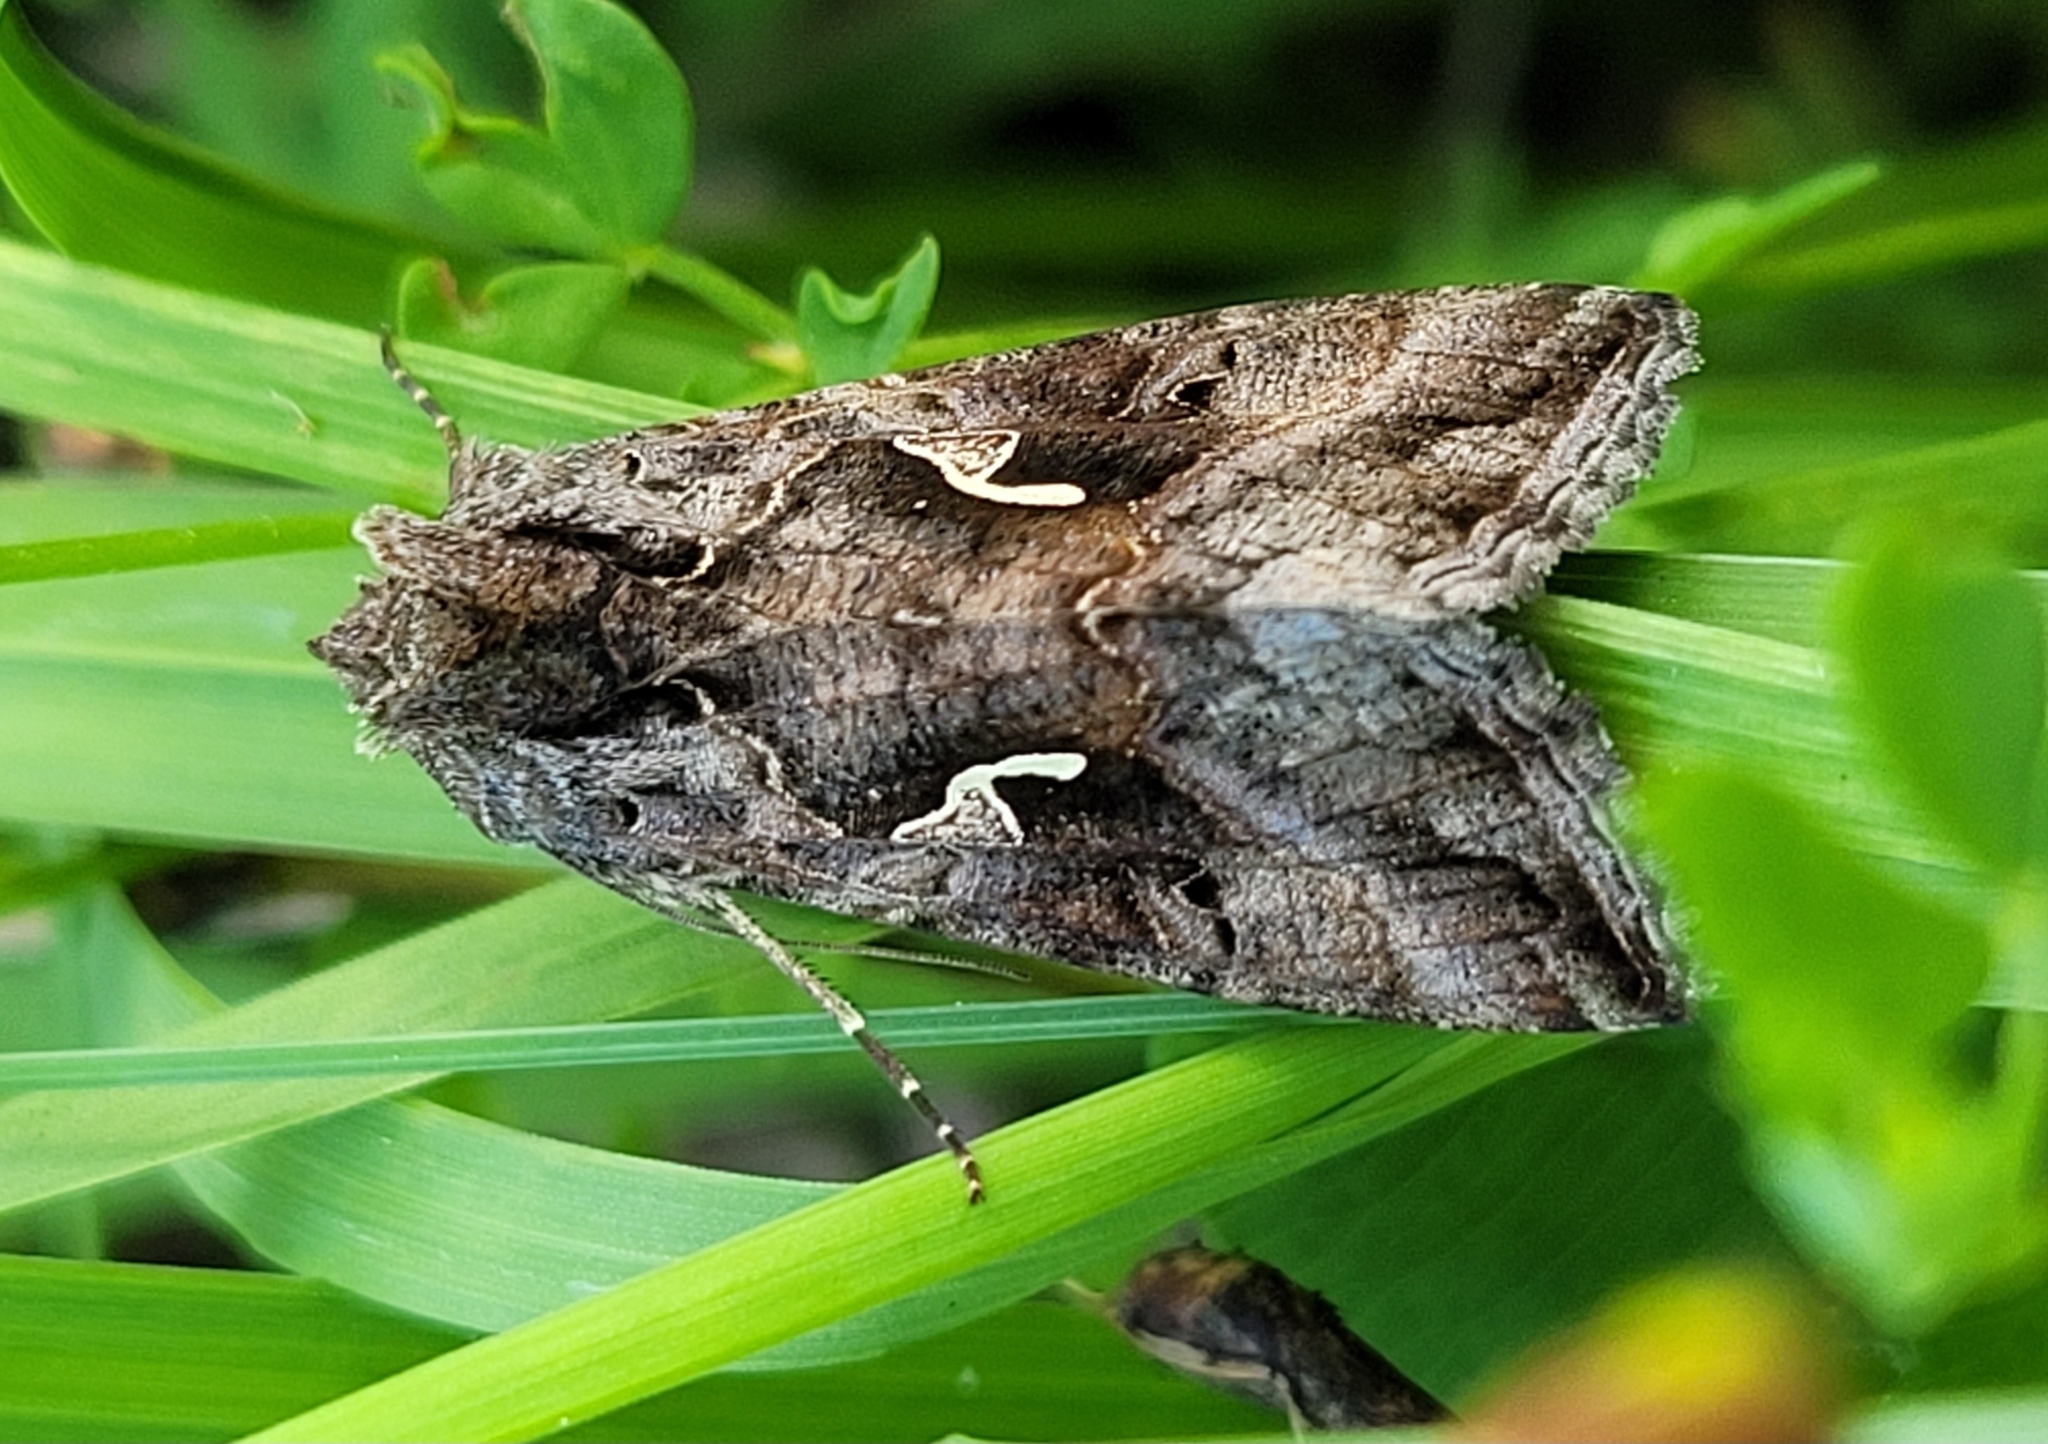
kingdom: Animalia
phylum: Arthropoda
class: Insecta
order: Lepidoptera
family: Noctuidae
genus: Autographa
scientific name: Autographa gamma
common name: Silver y
